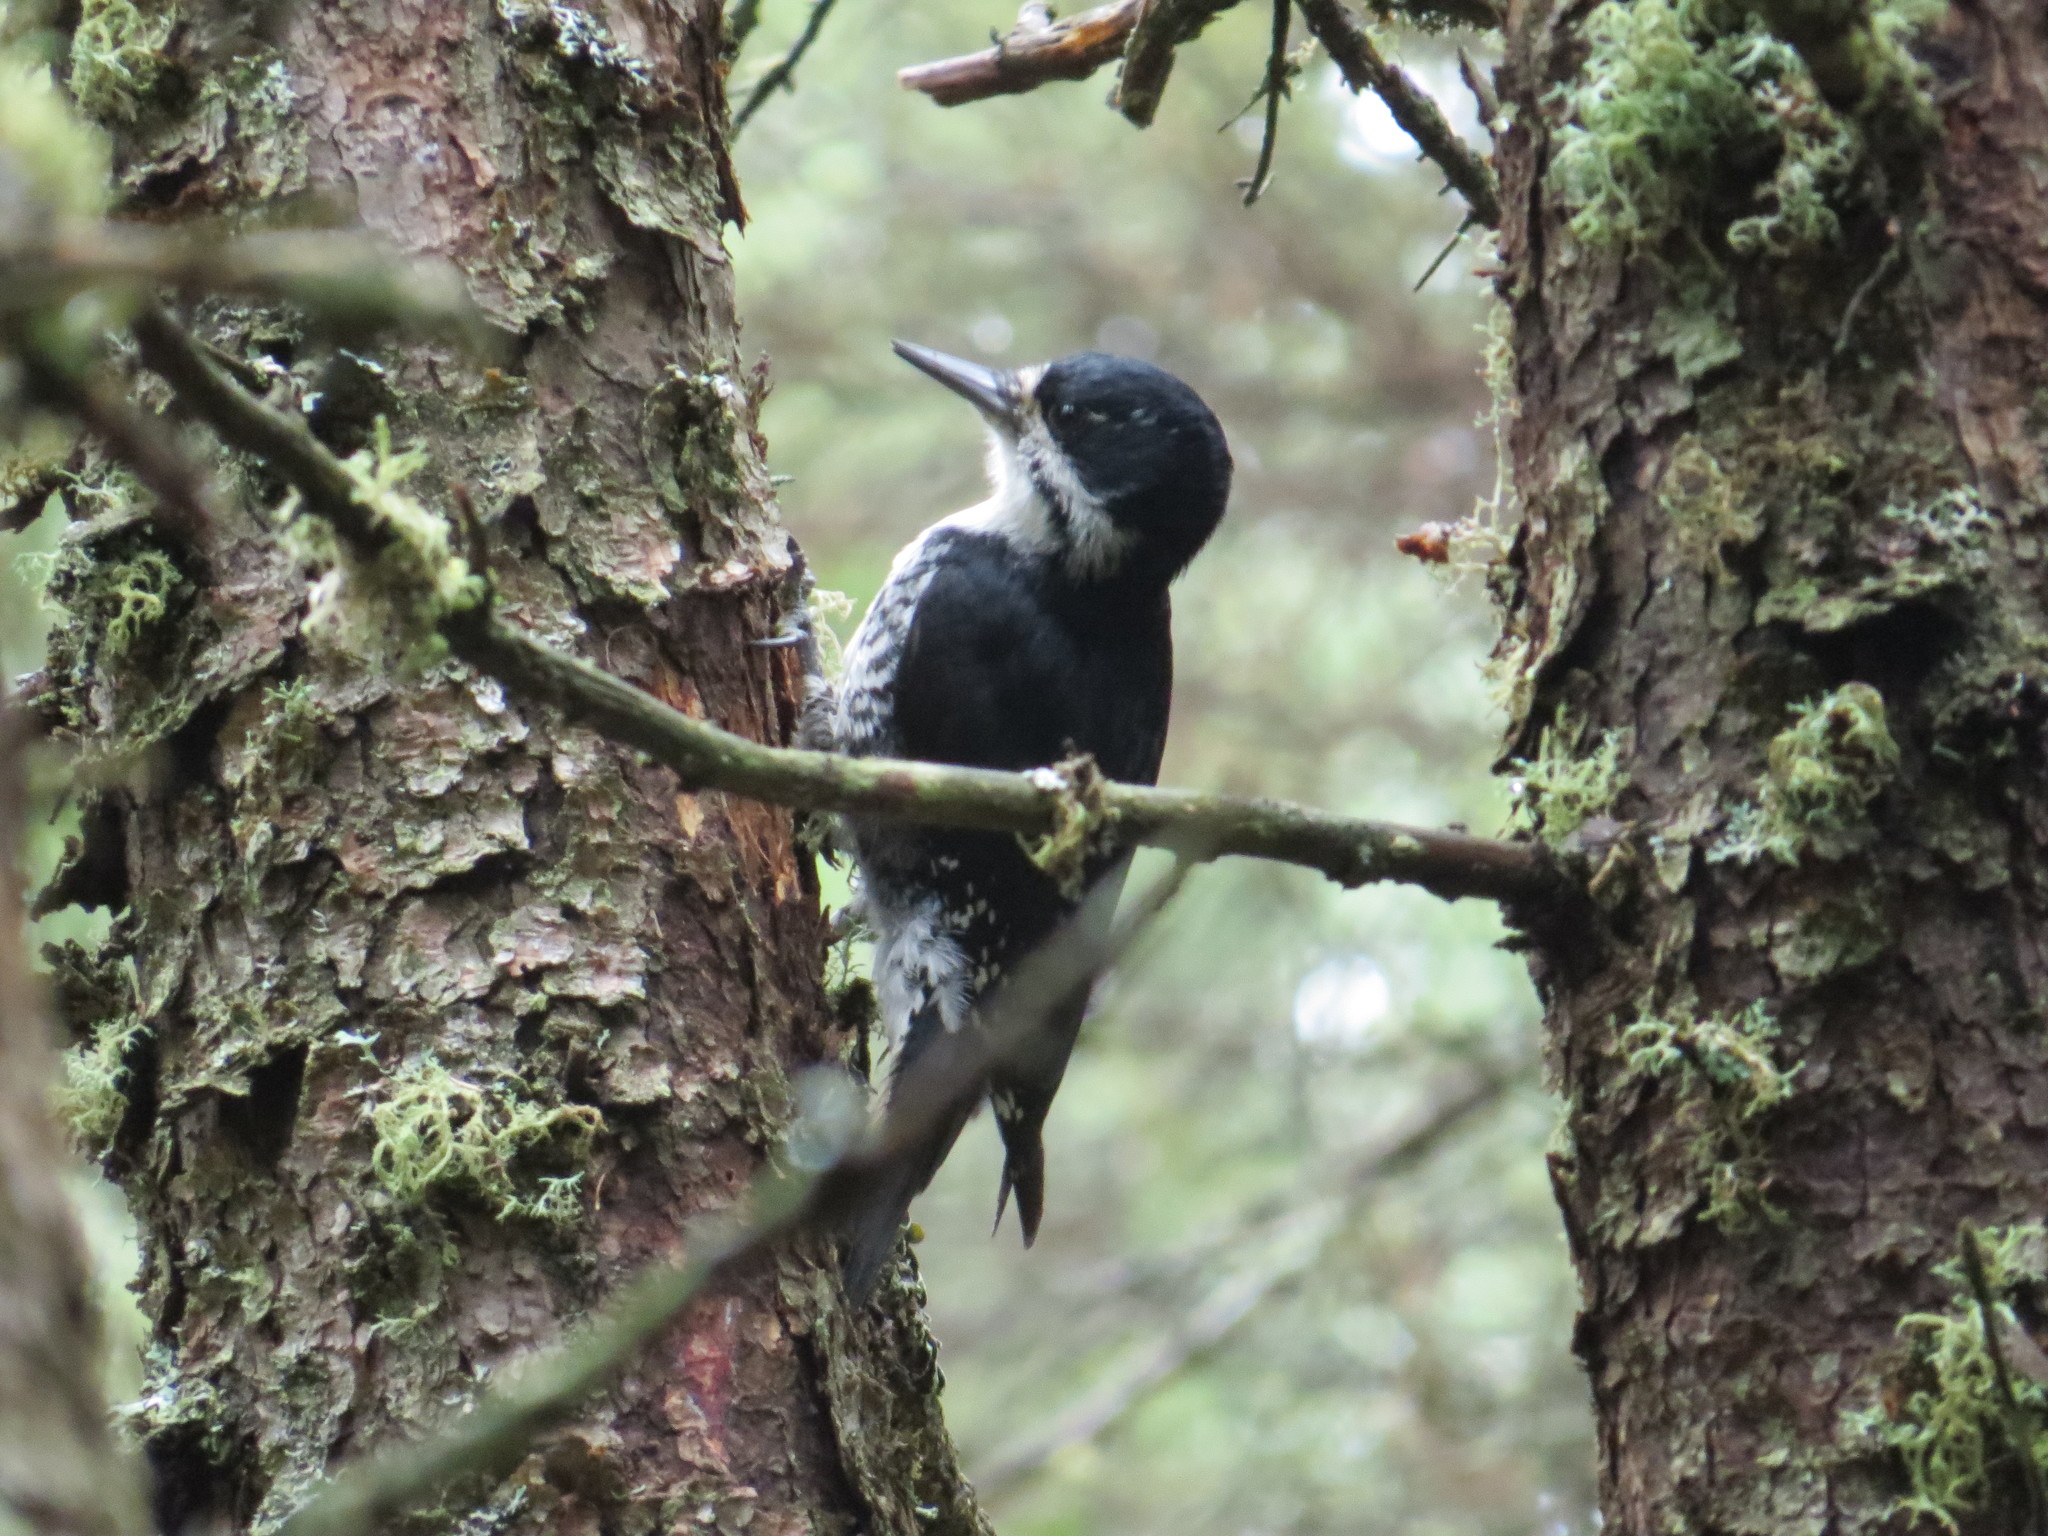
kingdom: Animalia
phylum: Chordata
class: Aves
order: Piciformes
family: Picidae
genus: Picoides
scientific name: Picoides arcticus
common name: Black-backed woodpecker
